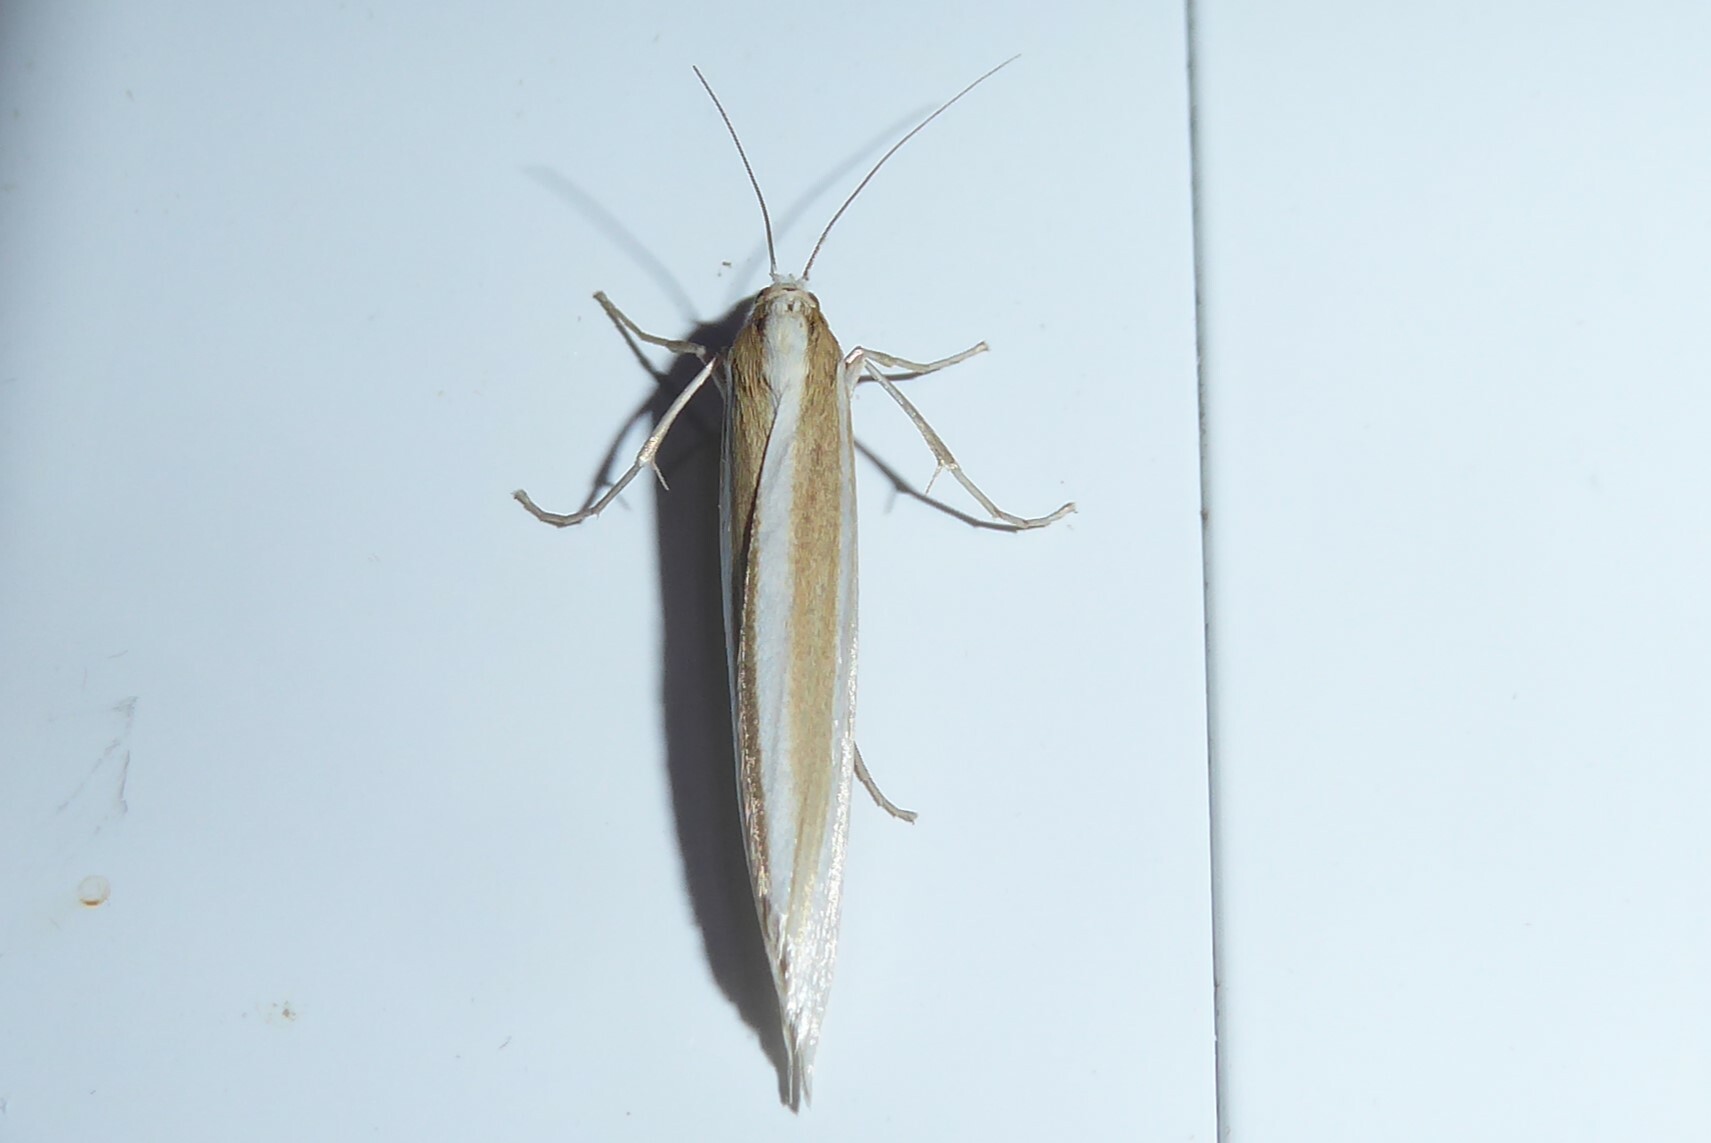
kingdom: Animalia
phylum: Arthropoda
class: Insecta
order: Lepidoptera
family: Crambidae
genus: Orocrambus
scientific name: Orocrambus angustipennis
